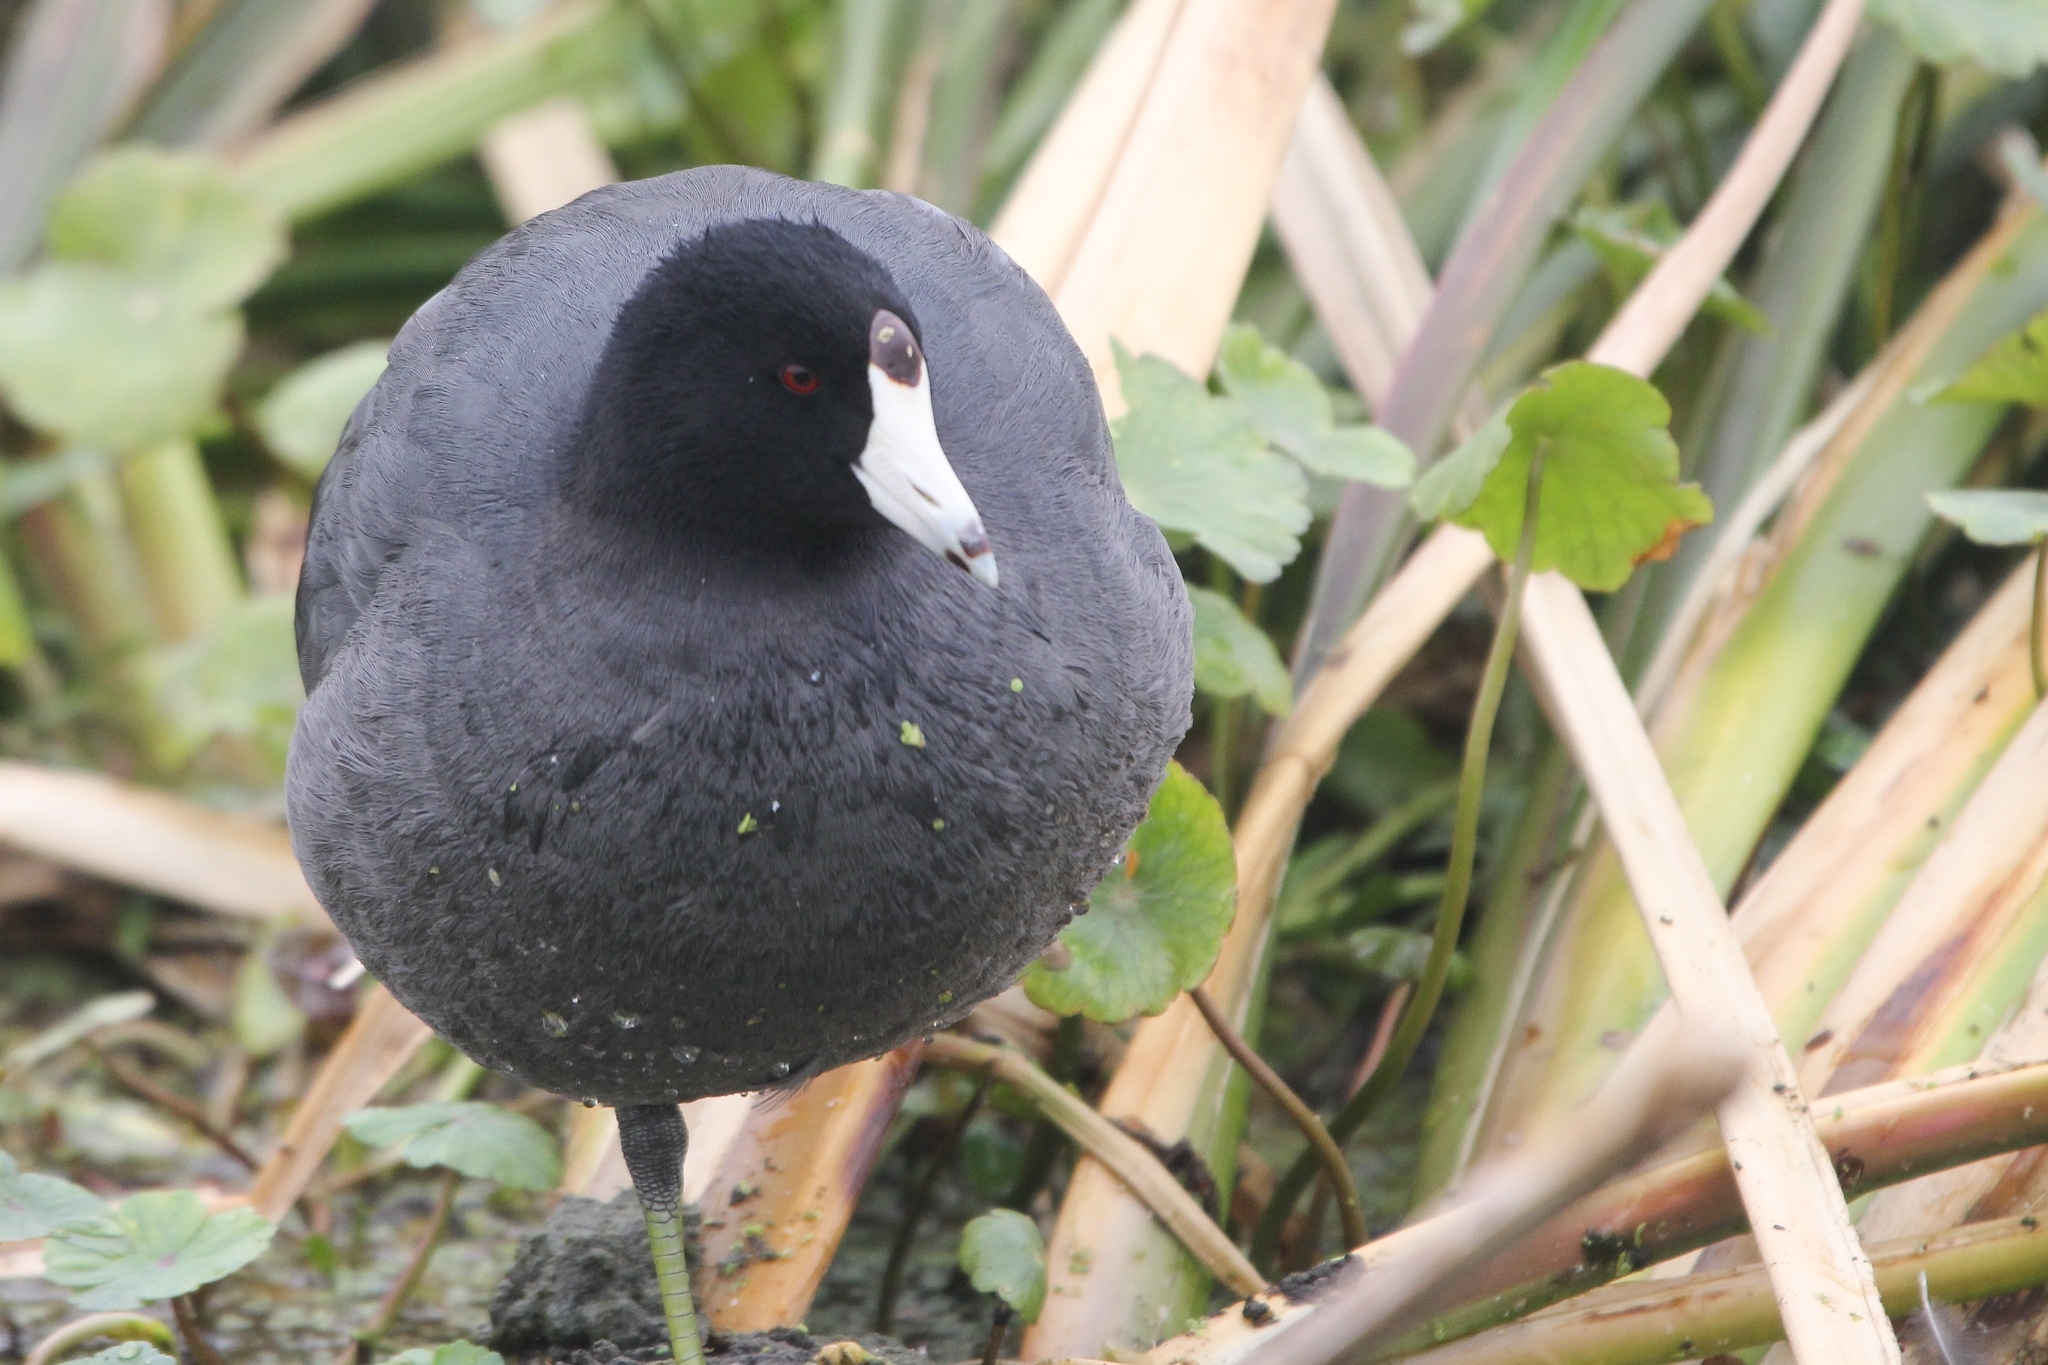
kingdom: Animalia
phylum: Chordata
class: Aves
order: Gruiformes
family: Rallidae
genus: Fulica
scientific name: Fulica americana
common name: American coot
